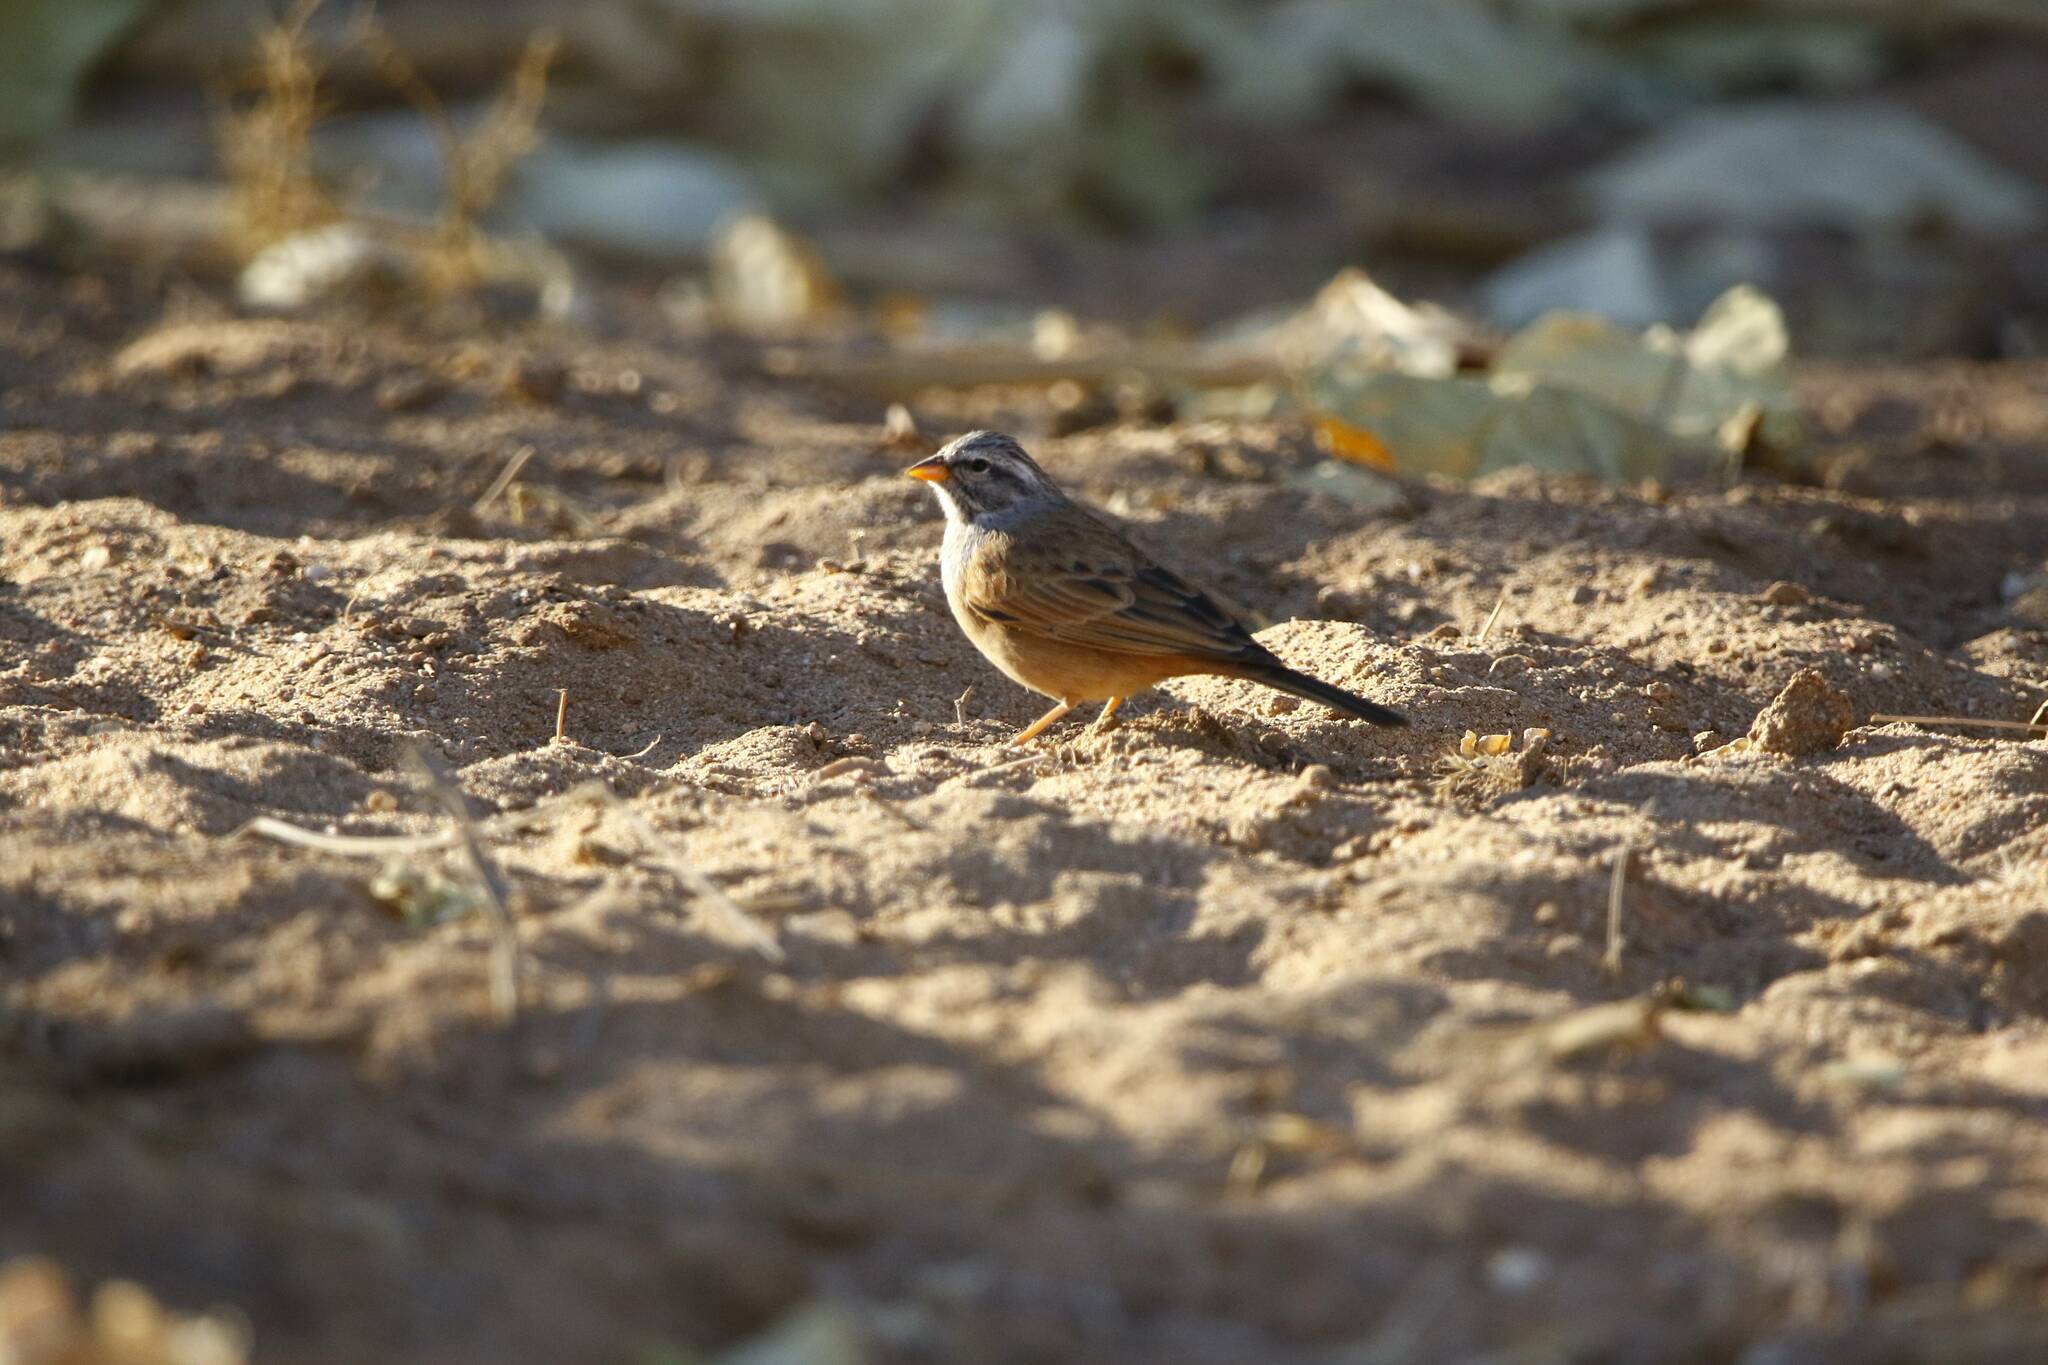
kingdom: Animalia
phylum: Chordata
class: Aves
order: Passeriformes
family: Emberizidae
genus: Emberiza
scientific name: Emberiza sahari
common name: House bunting
